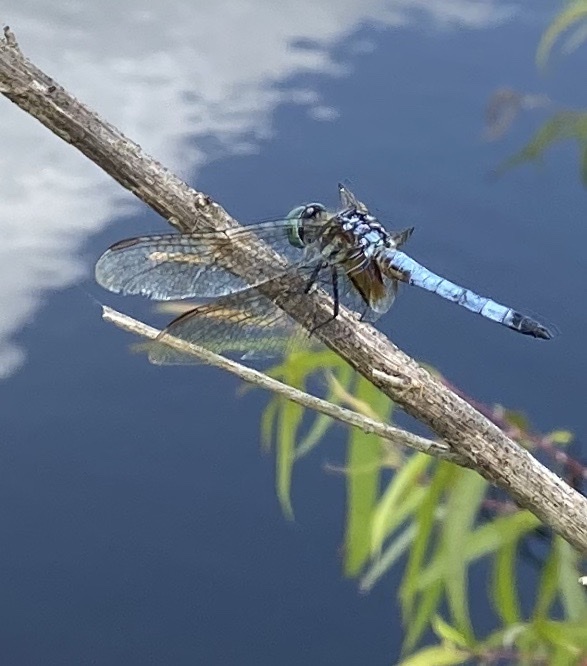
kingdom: Animalia
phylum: Arthropoda
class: Insecta
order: Odonata
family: Libellulidae
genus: Pachydiplax
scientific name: Pachydiplax longipennis
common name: Blue dasher
